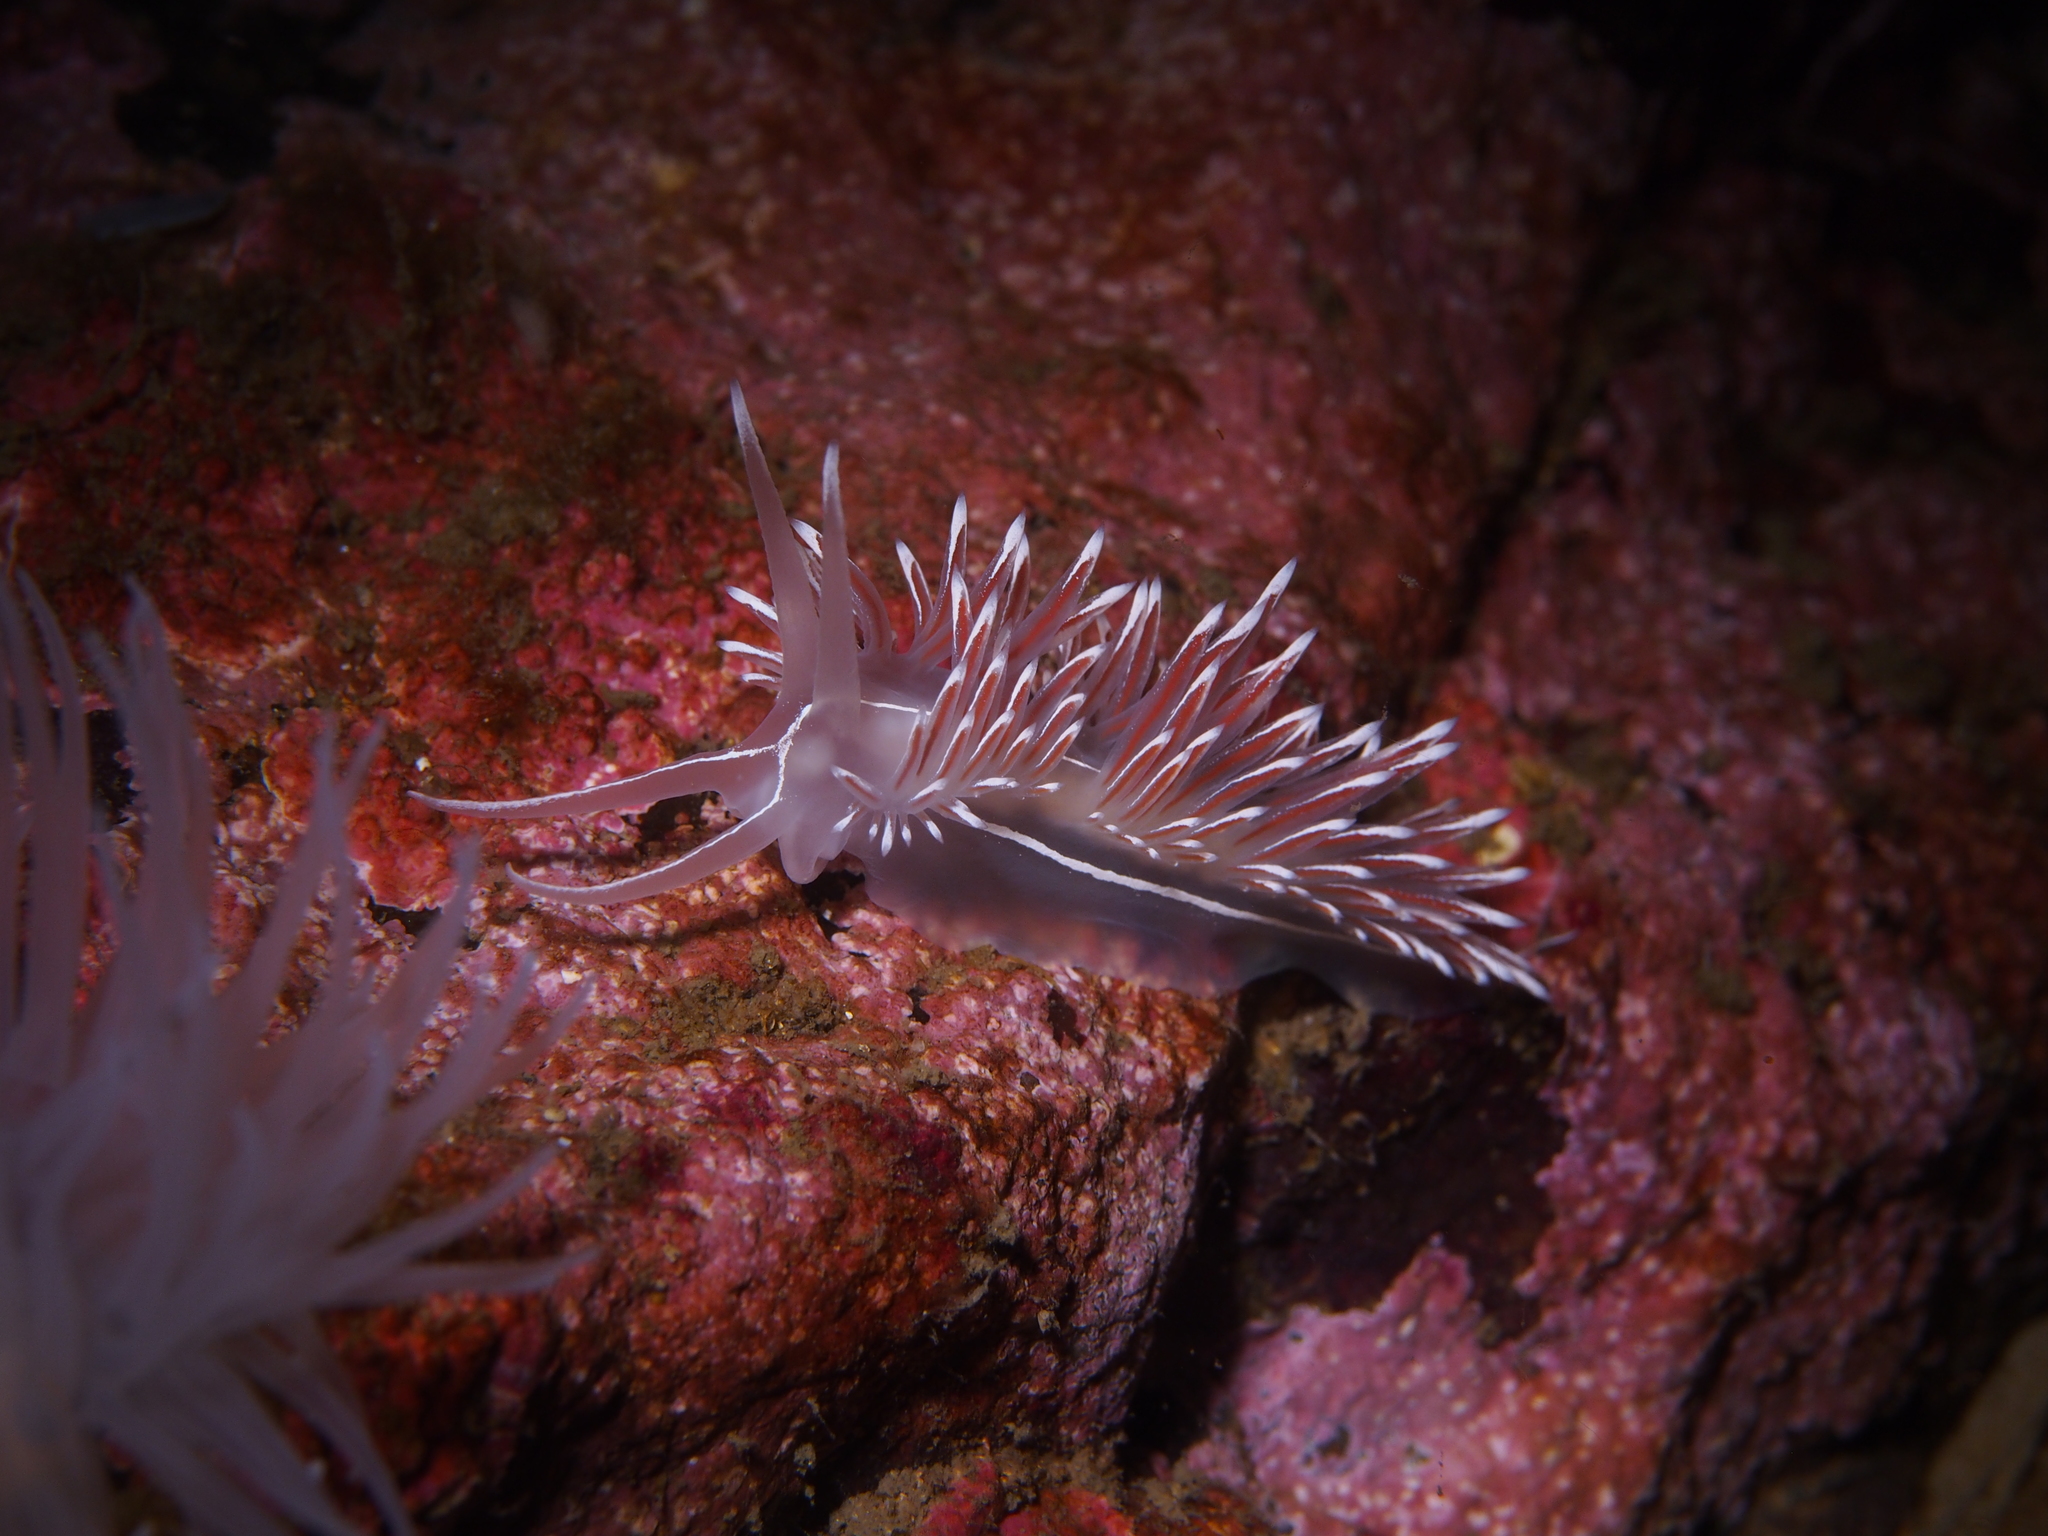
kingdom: Animalia
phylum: Mollusca
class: Gastropoda
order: Nudibranchia
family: Coryphellidae
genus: Coryphella
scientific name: Coryphella lineata
